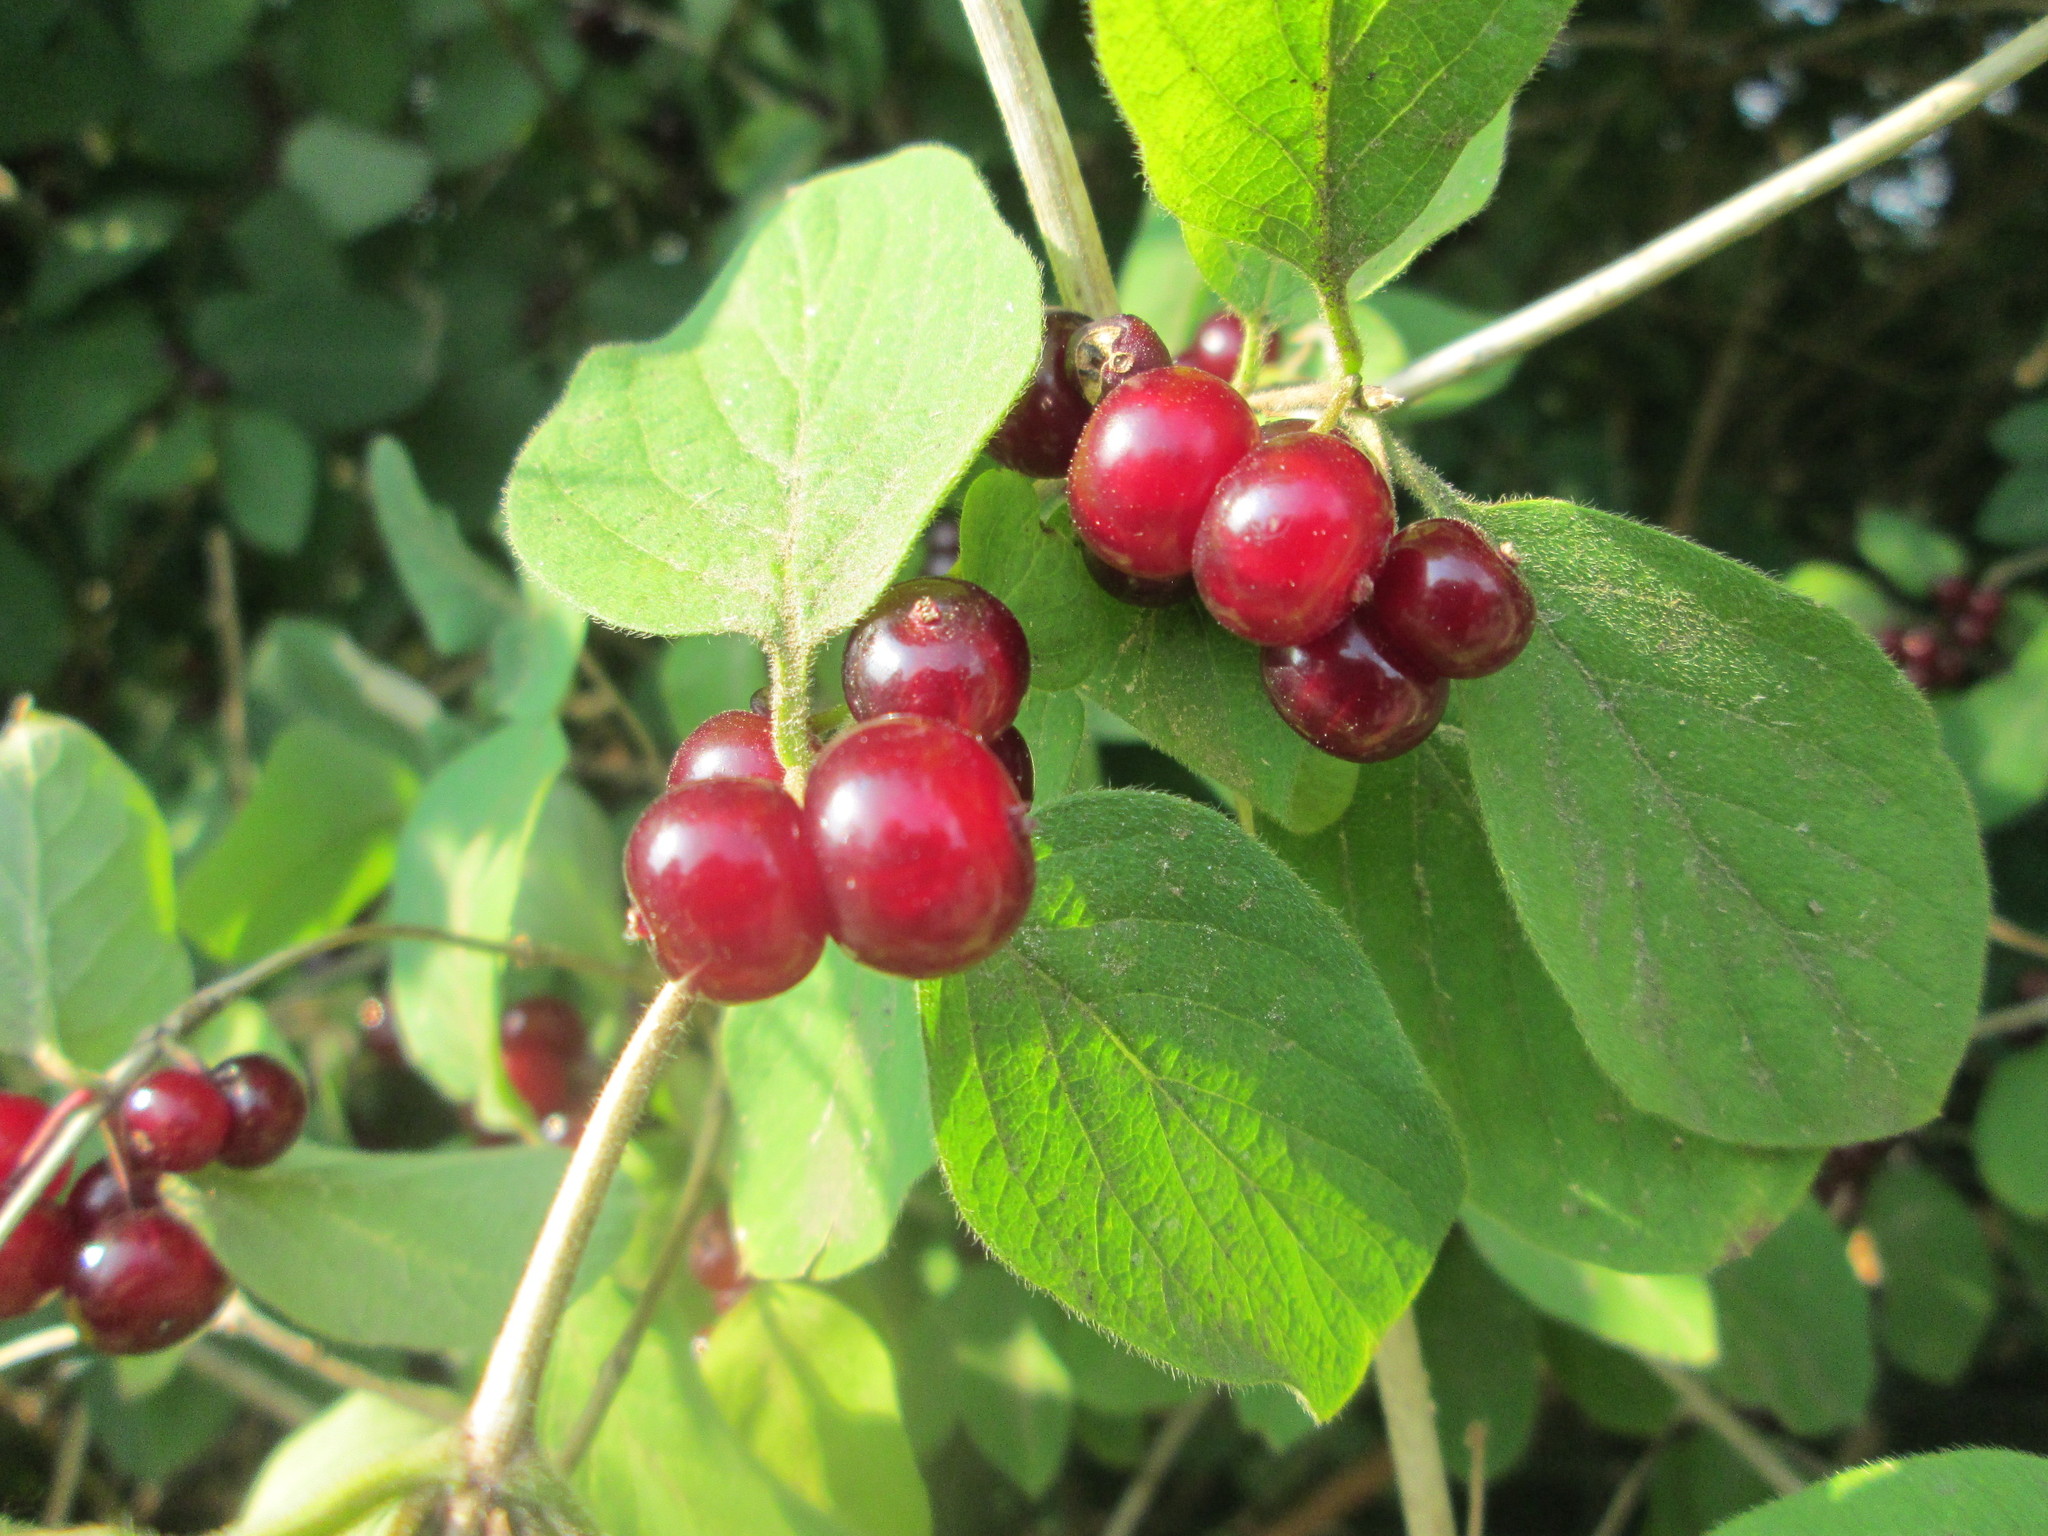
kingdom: Plantae
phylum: Tracheophyta
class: Magnoliopsida
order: Dipsacales
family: Caprifoliaceae
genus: Lonicera
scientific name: Lonicera xylosteum
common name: Fly honeysuckle
